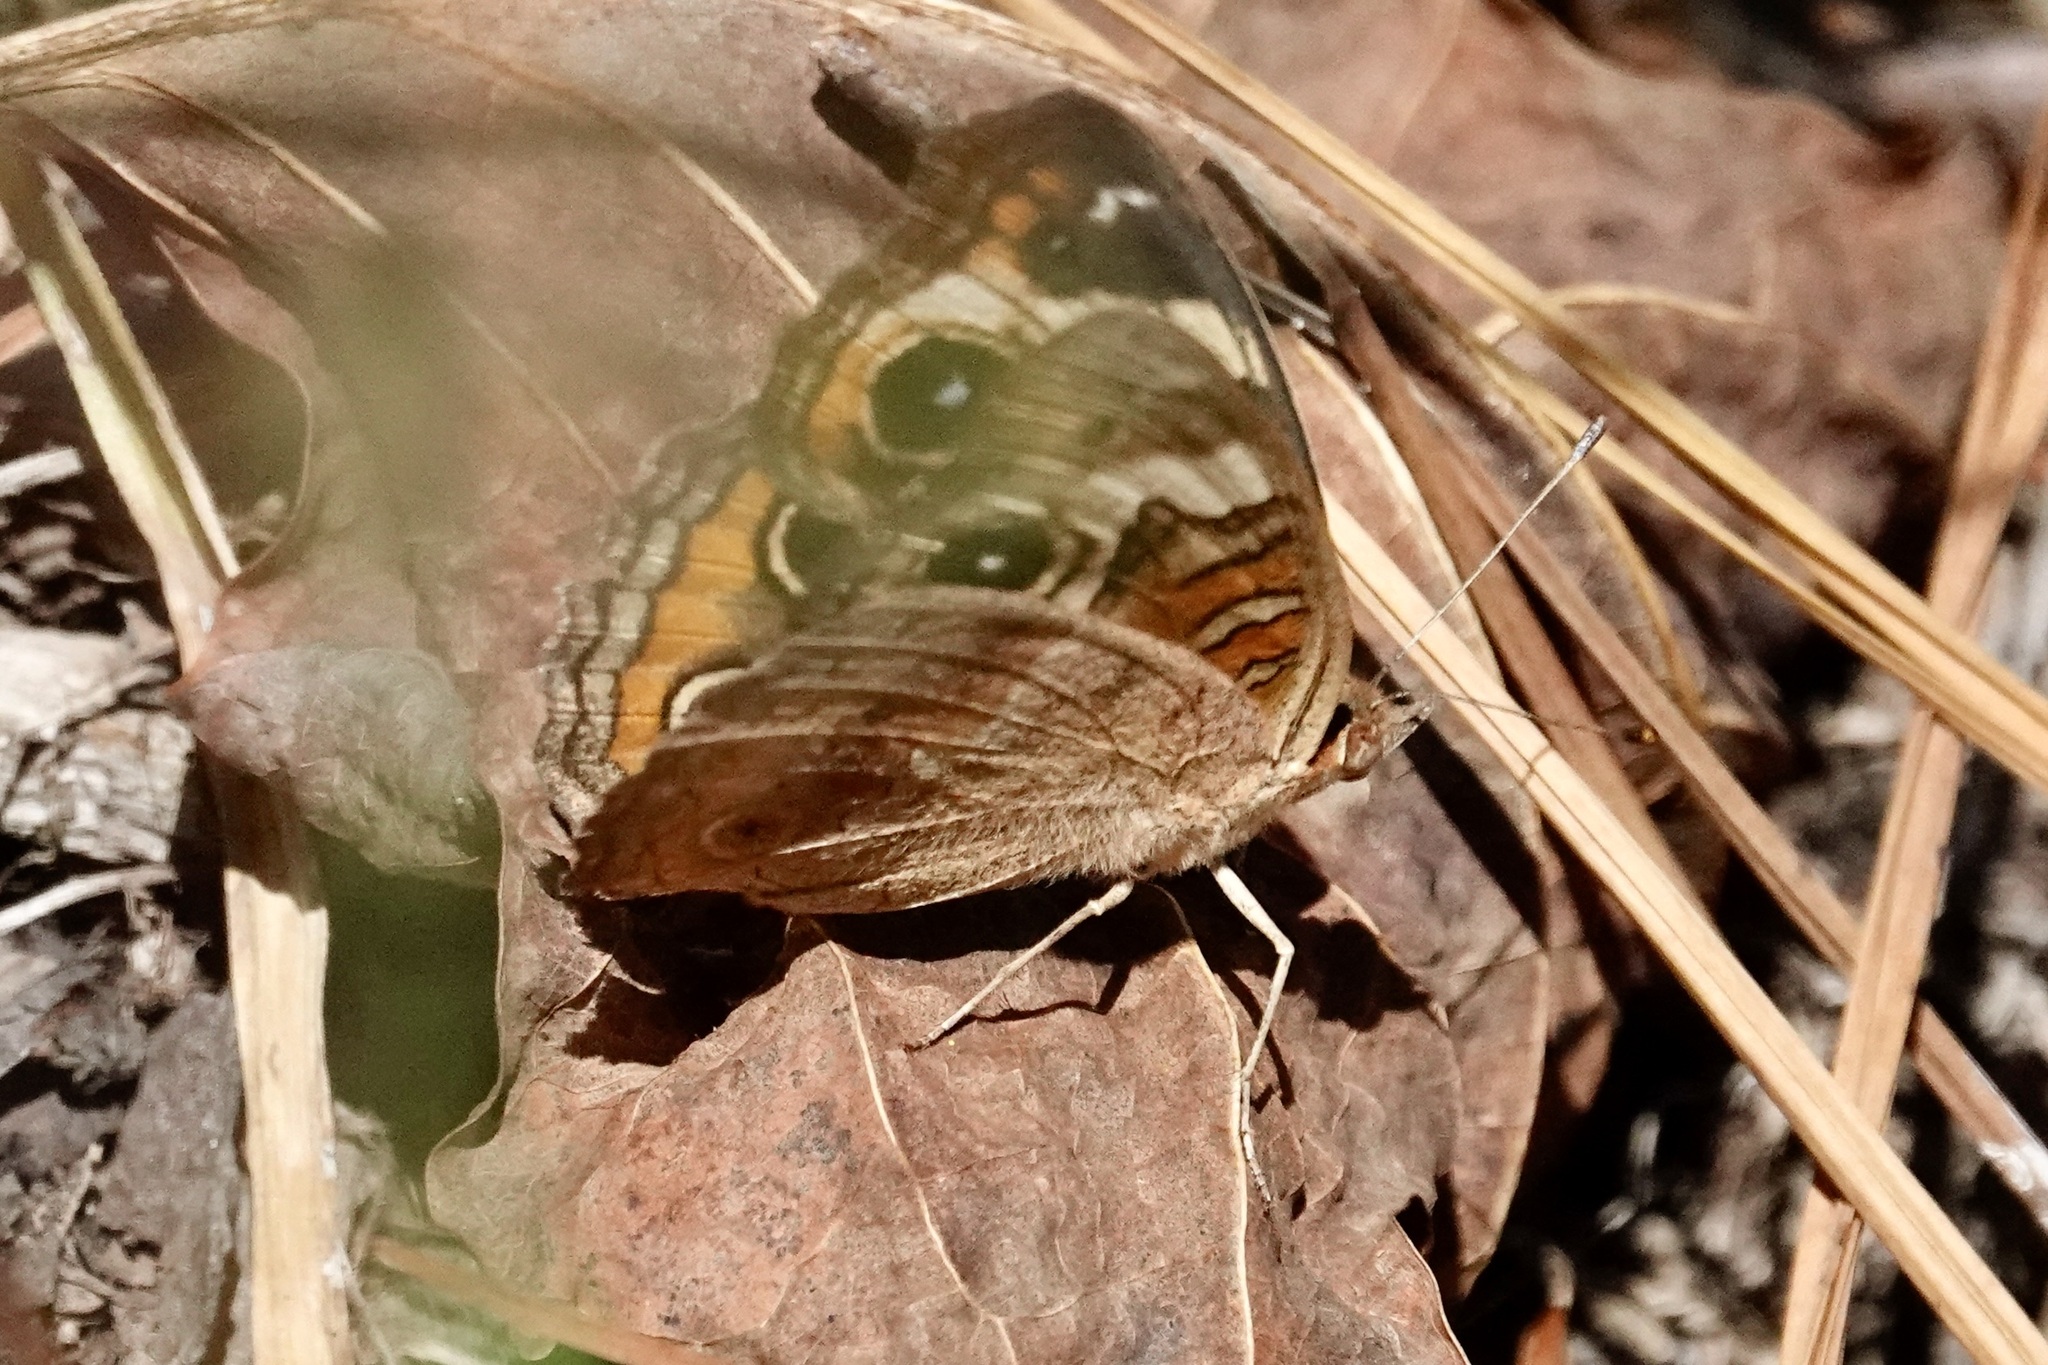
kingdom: Animalia
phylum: Arthropoda
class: Insecta
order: Lepidoptera
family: Nymphalidae
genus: Junonia
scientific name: Junonia coenia
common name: Common buckeye
